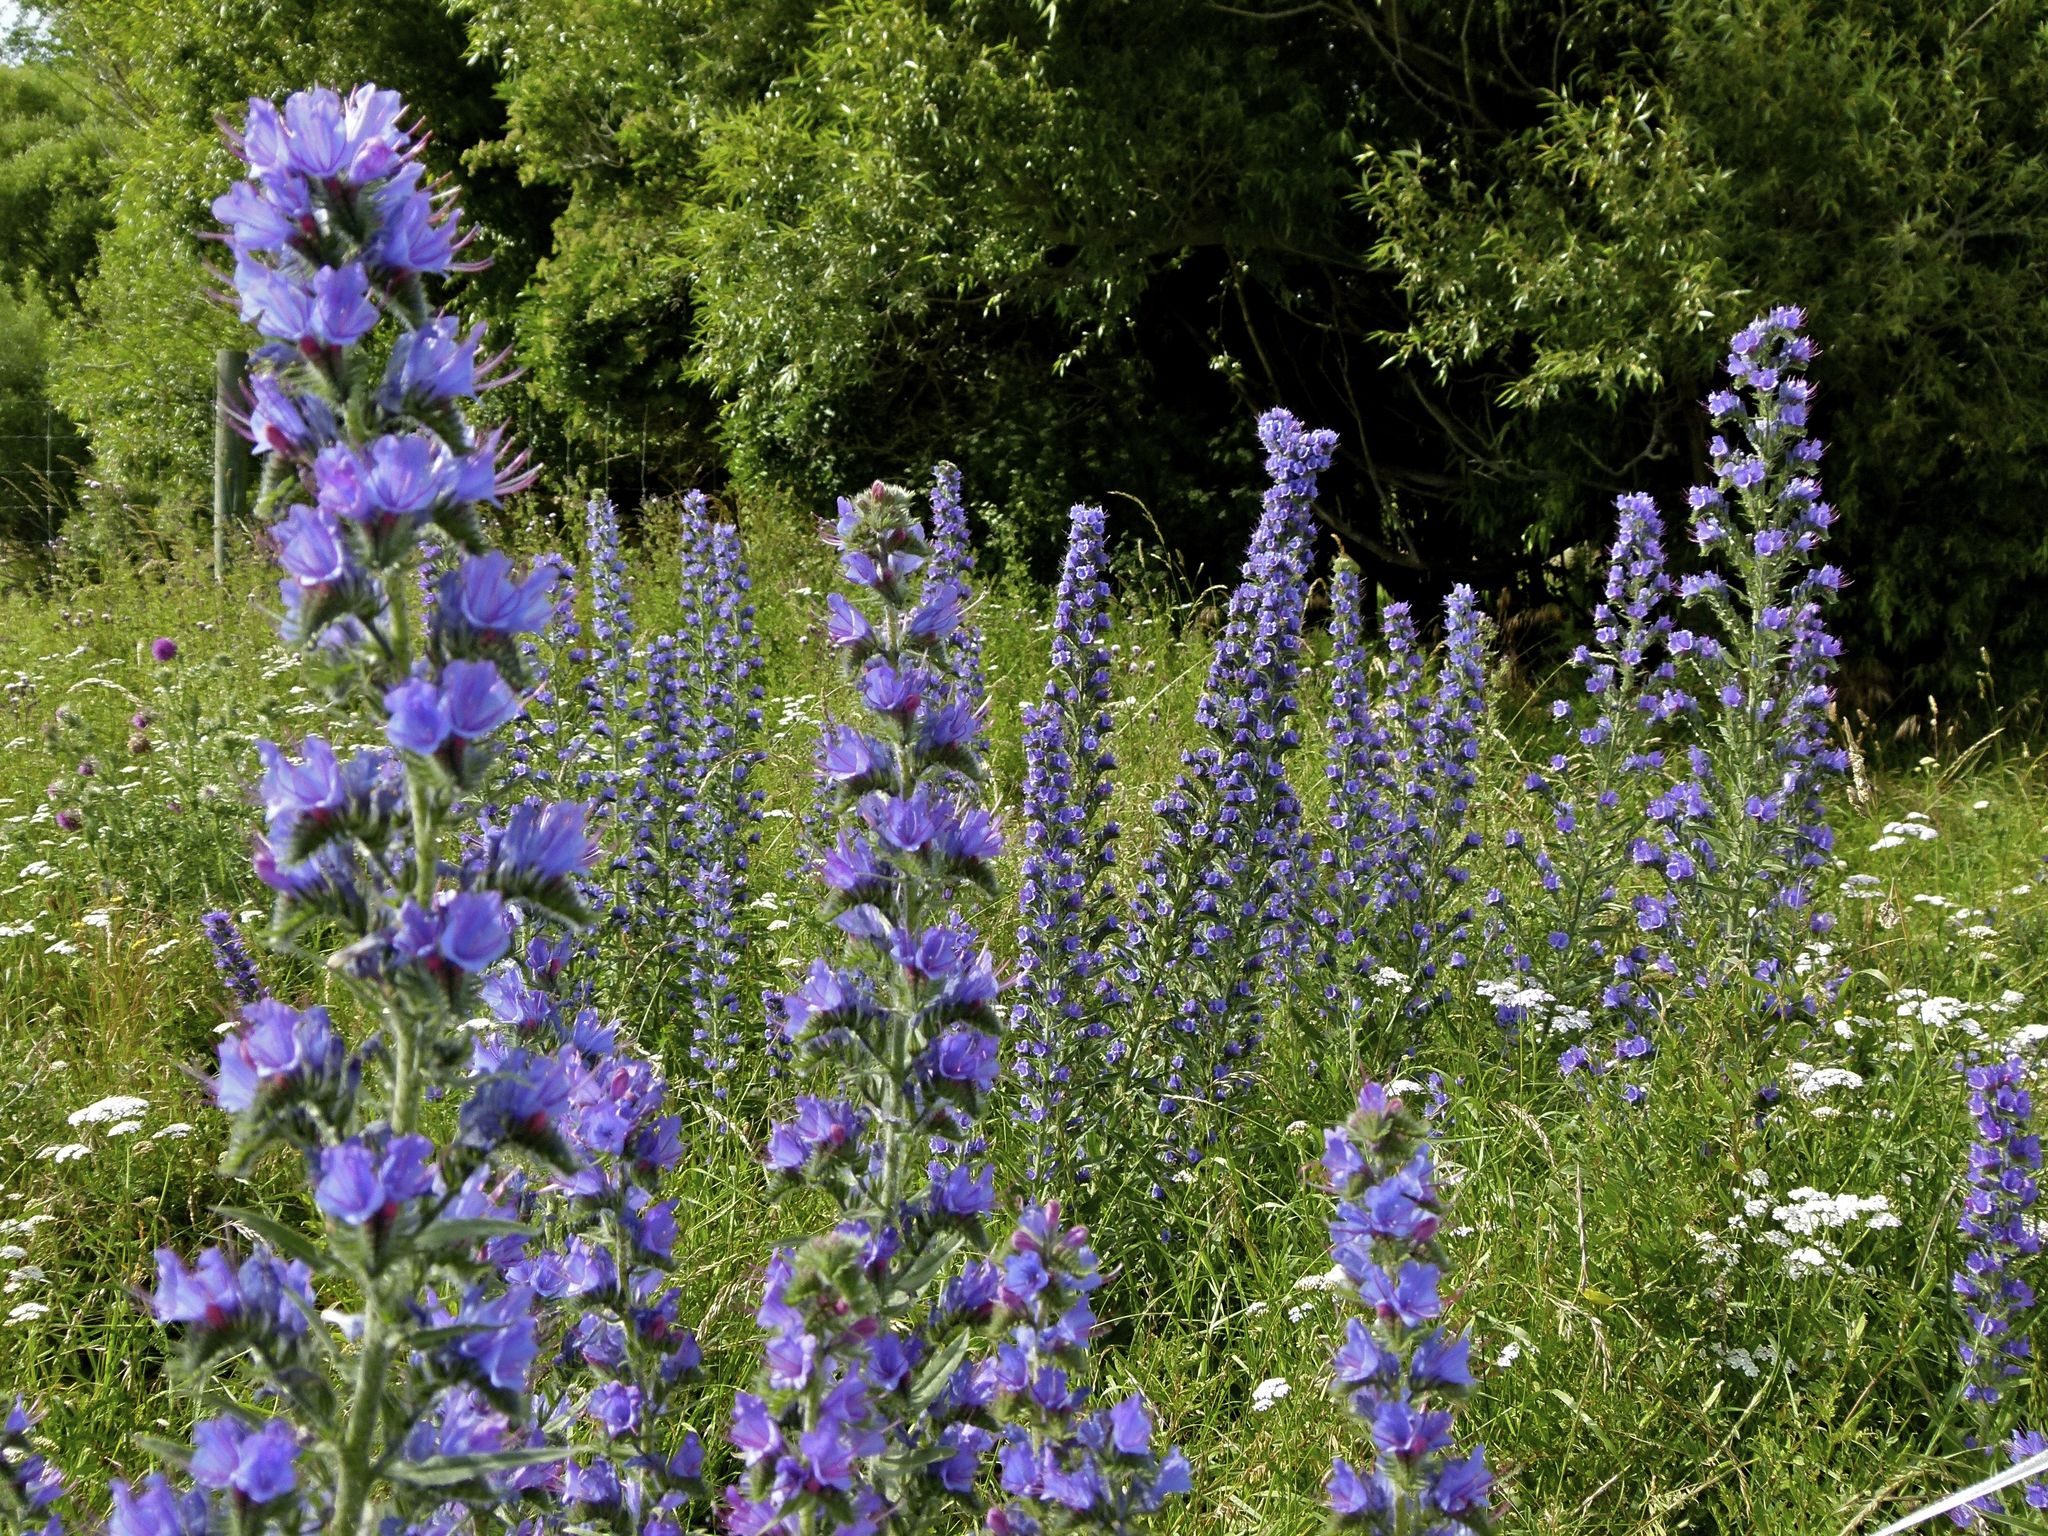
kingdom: Plantae
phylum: Tracheophyta
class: Magnoliopsida
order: Boraginales
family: Boraginaceae
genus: Echium
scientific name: Echium vulgare
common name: Common viper's bugloss
